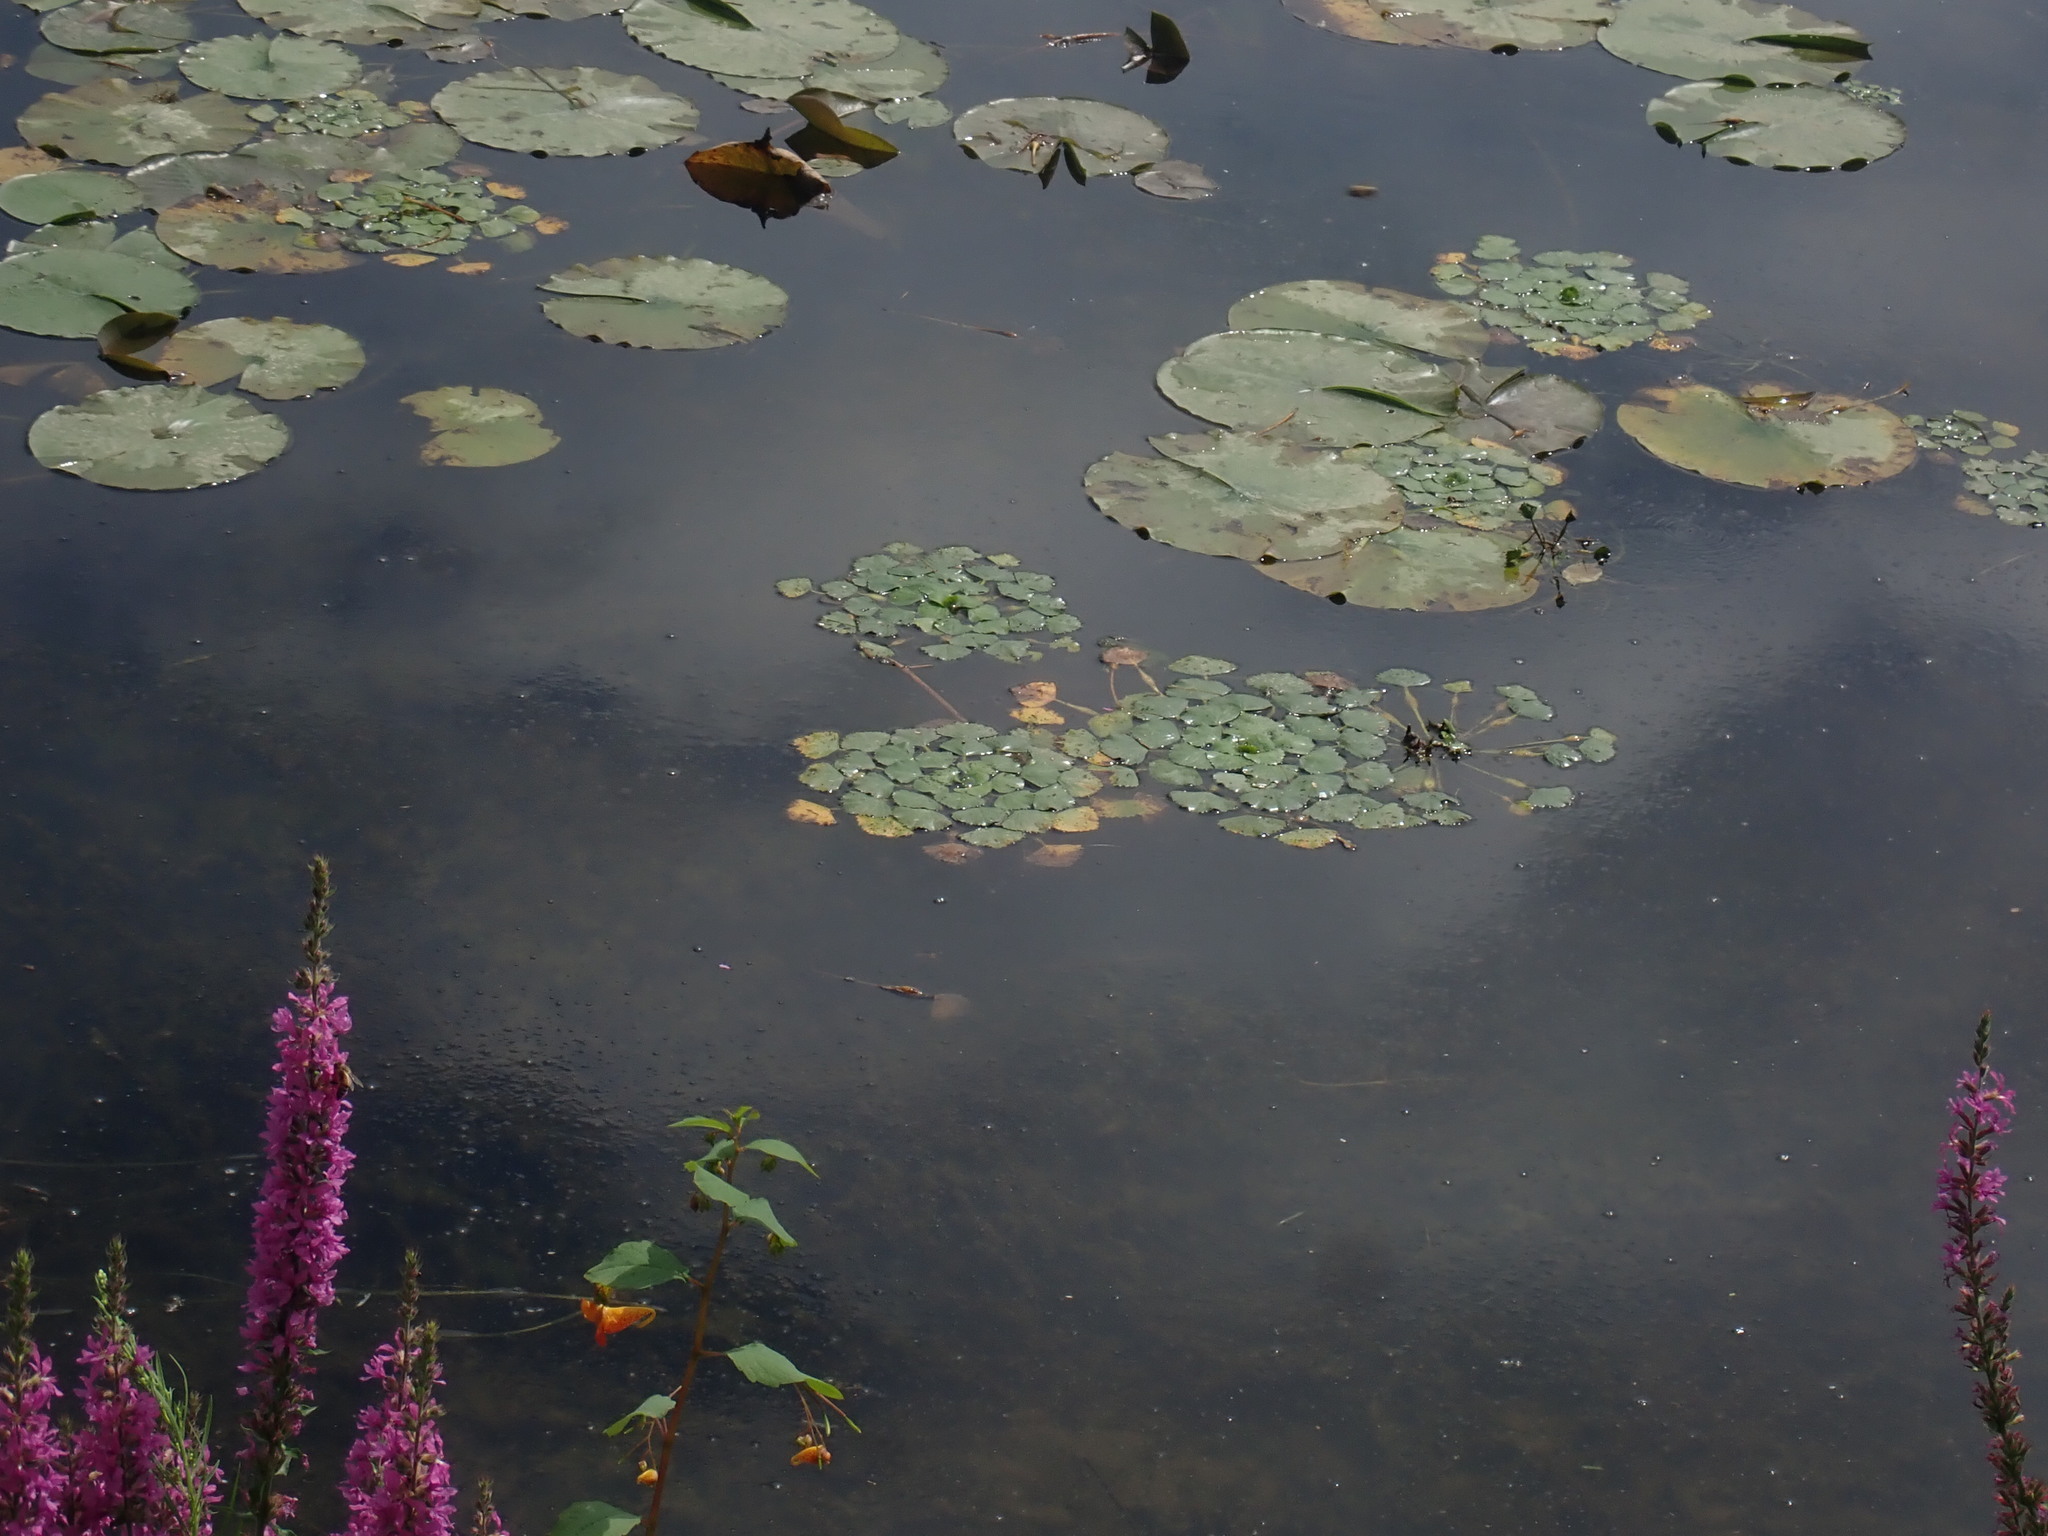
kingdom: Plantae
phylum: Tracheophyta
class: Magnoliopsida
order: Myrtales
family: Lythraceae
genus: Trapa
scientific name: Trapa natans
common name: Water chestnut
